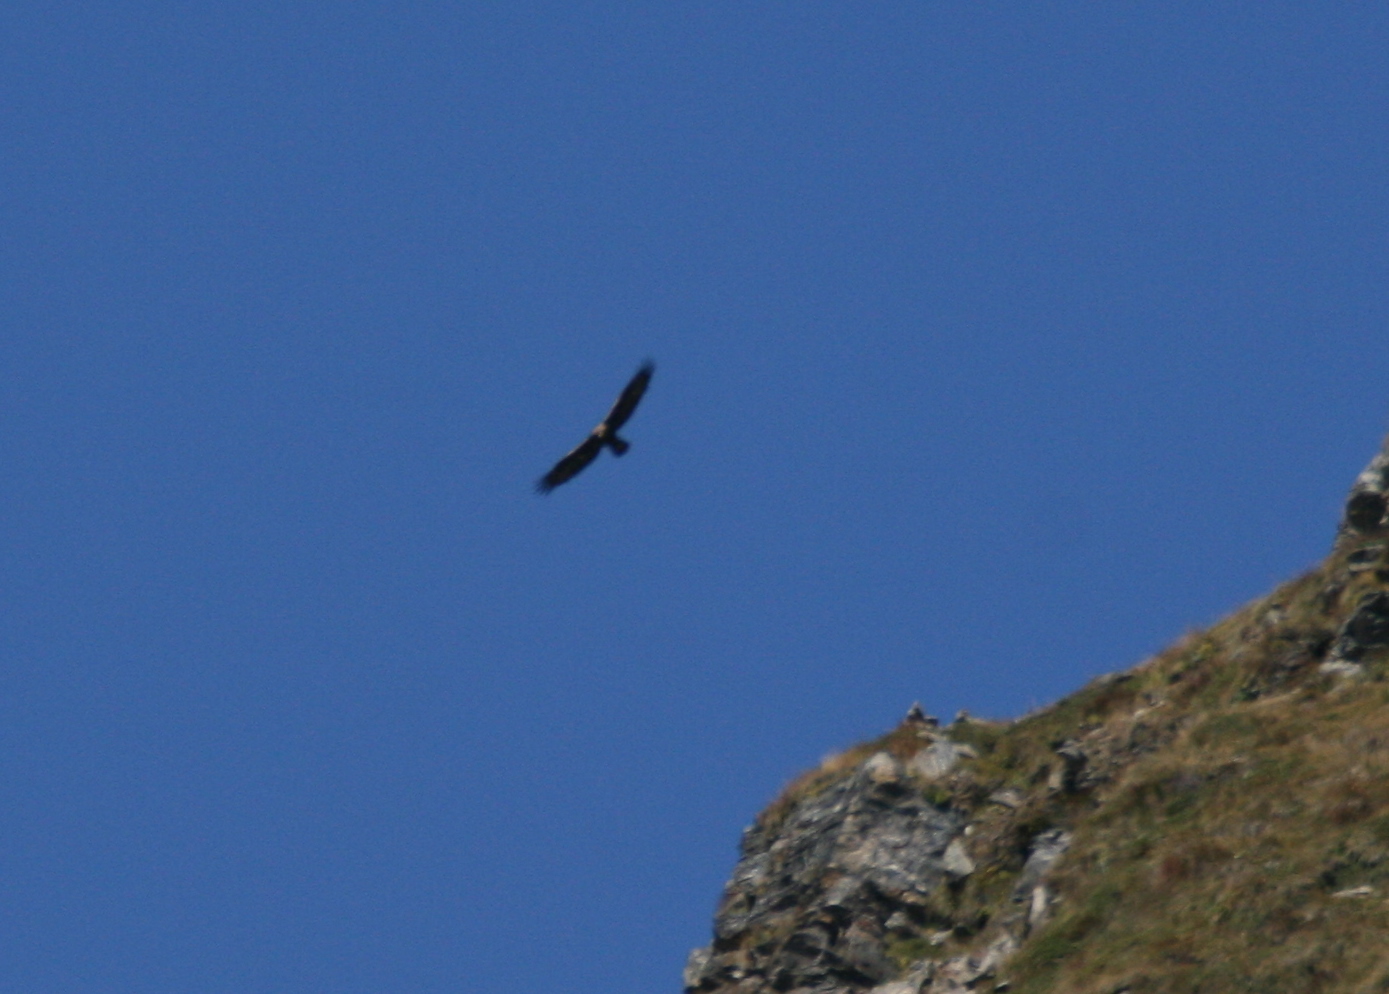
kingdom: Animalia
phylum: Chordata
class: Aves
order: Accipitriformes
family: Accipitridae
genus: Aquila
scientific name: Aquila chrysaetos
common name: Golden eagle
